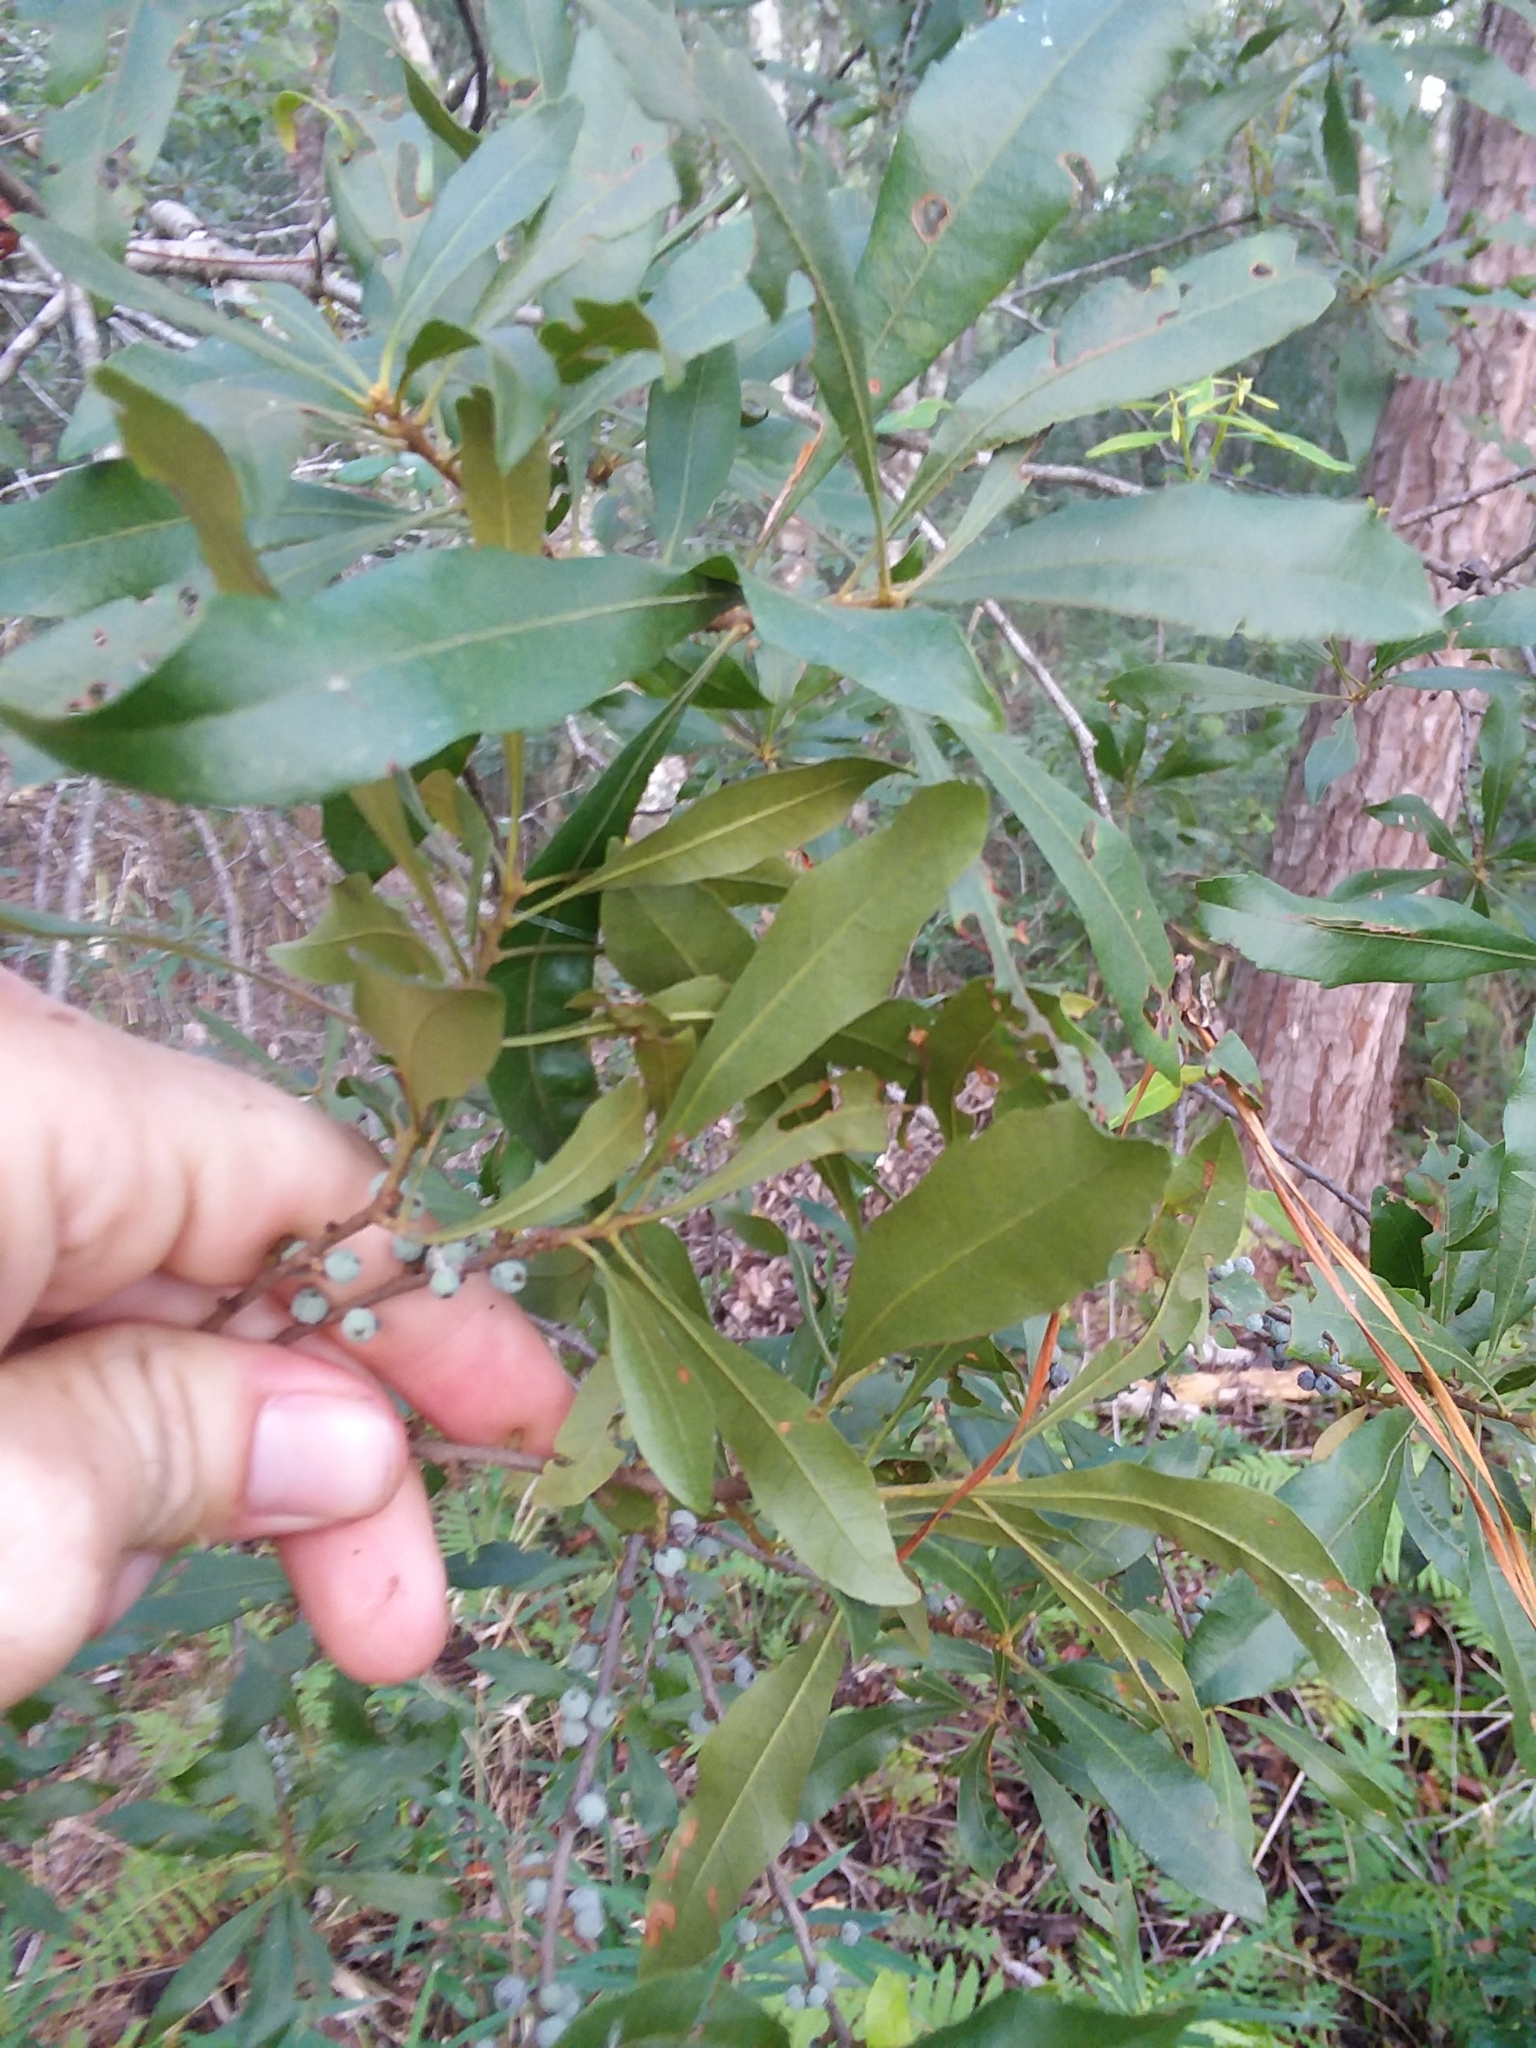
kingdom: Plantae
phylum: Tracheophyta
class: Magnoliopsida
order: Fagales
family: Myricaceae
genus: Morella
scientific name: Morella cerifera
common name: Wax myrtle
